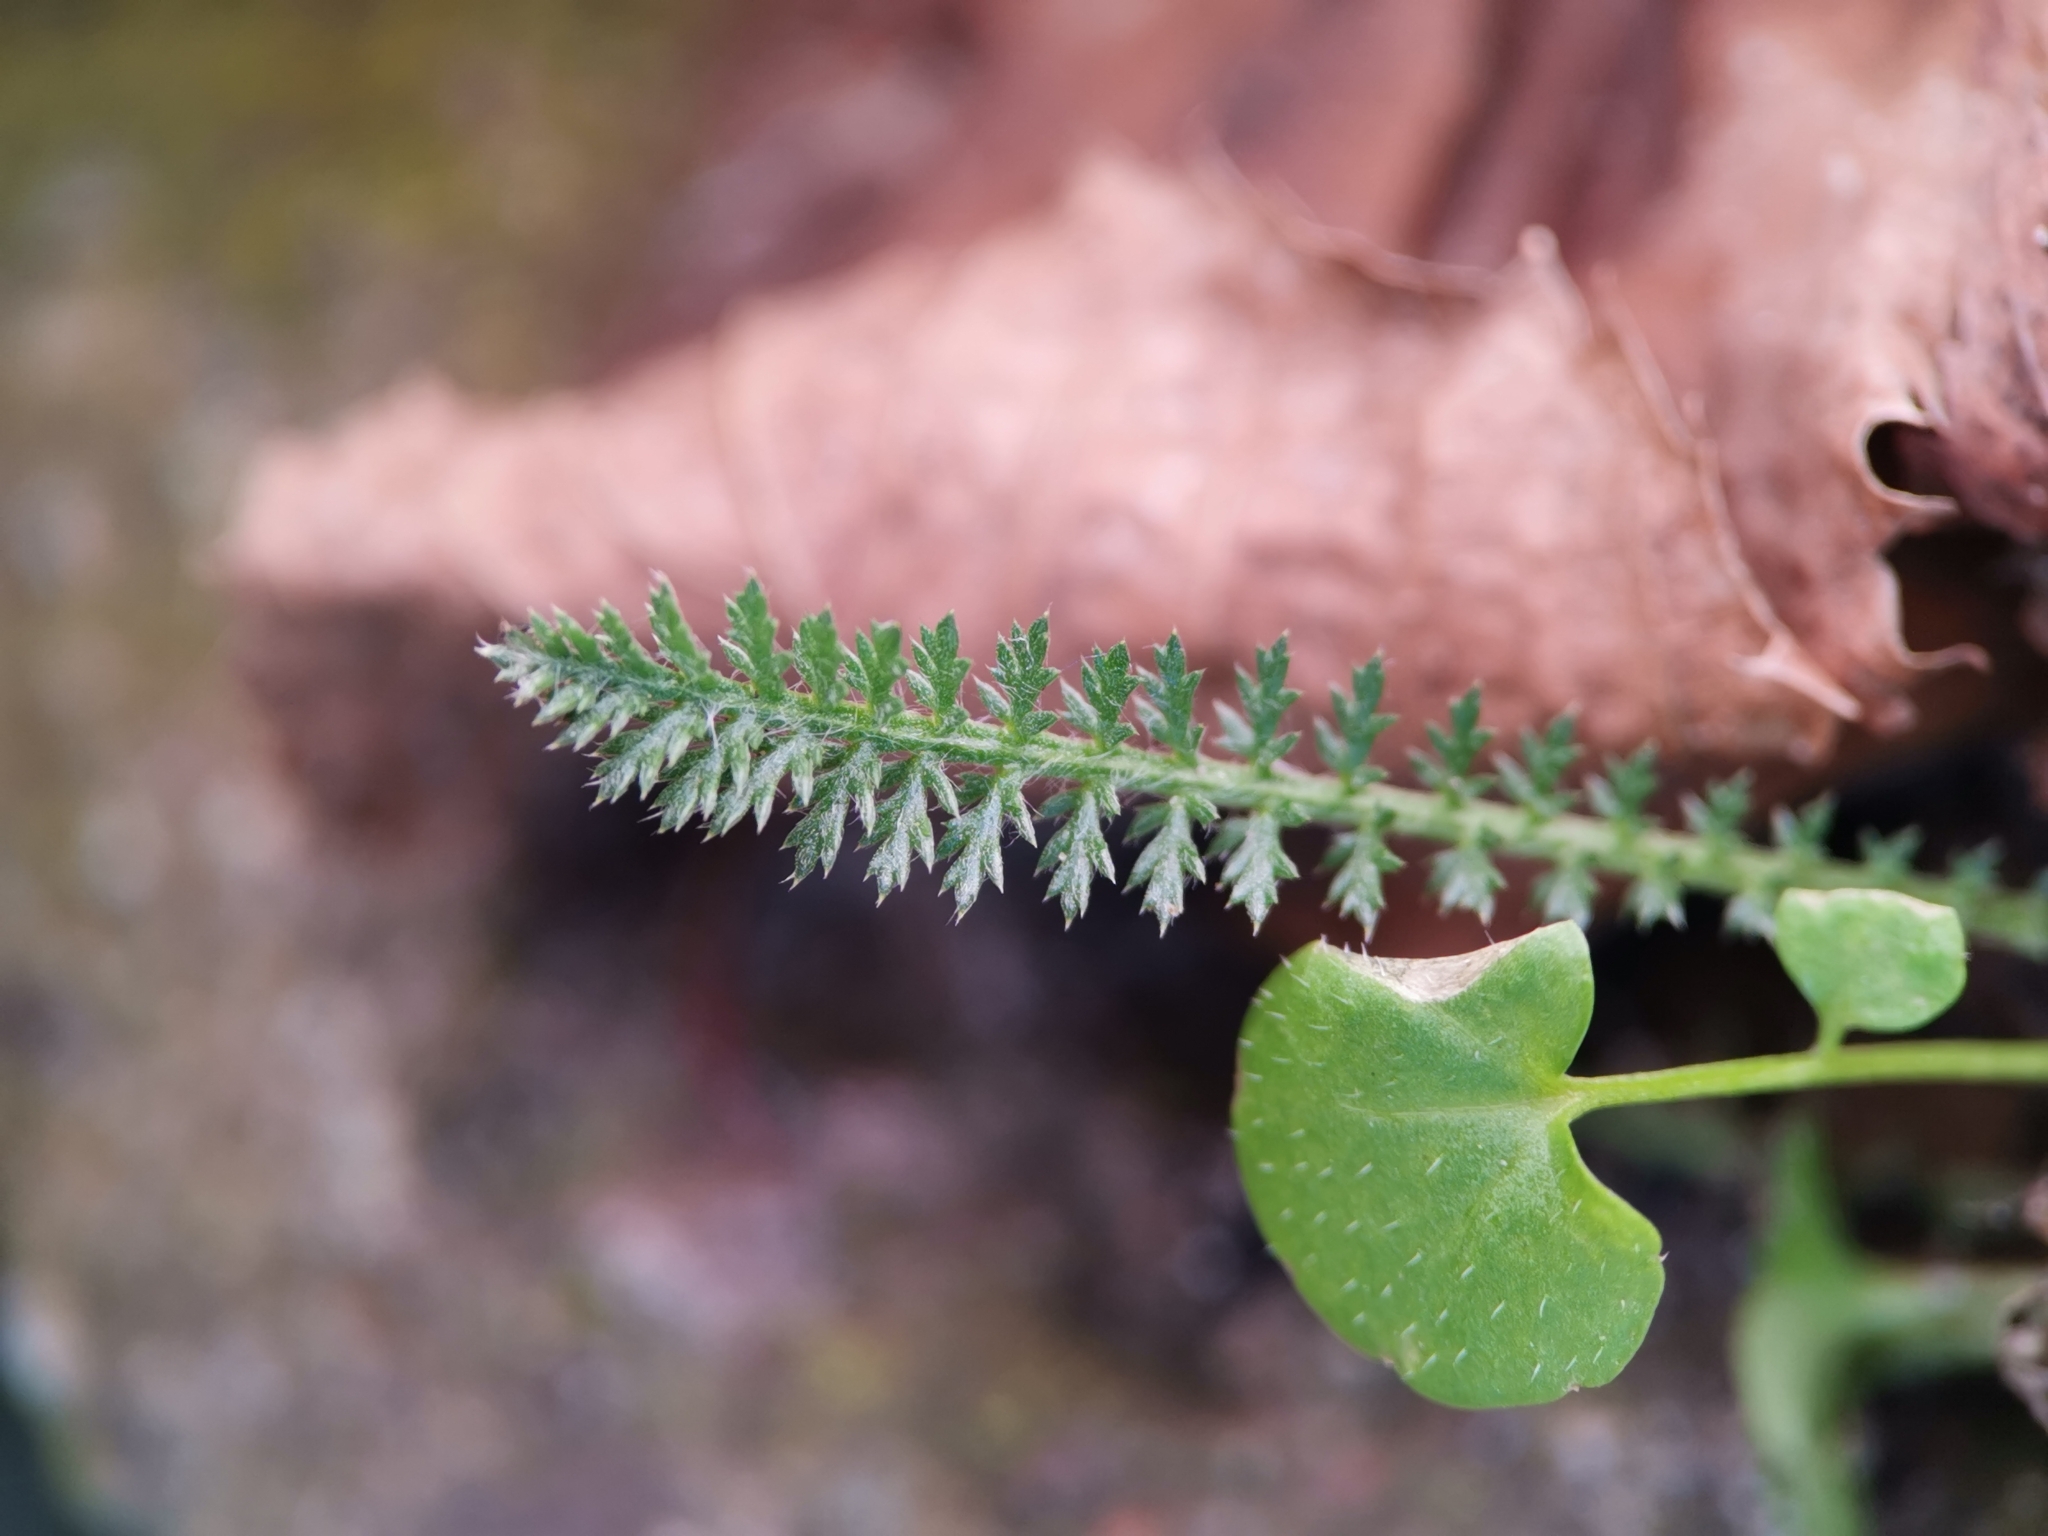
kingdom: Plantae
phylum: Tracheophyta
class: Magnoliopsida
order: Asterales
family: Asteraceae
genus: Achillea
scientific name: Achillea millefolium
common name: Yarrow
